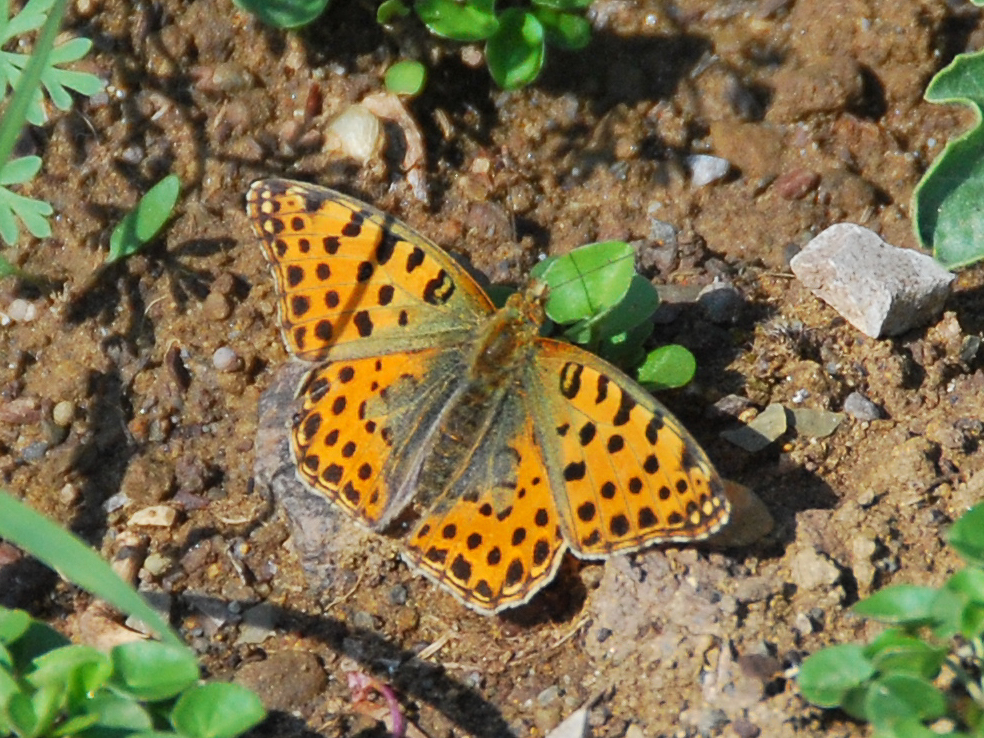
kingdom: Animalia
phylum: Arthropoda
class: Insecta
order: Lepidoptera
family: Nymphalidae
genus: Issoria
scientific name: Issoria lathonia
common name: Queen of spain fritillary
